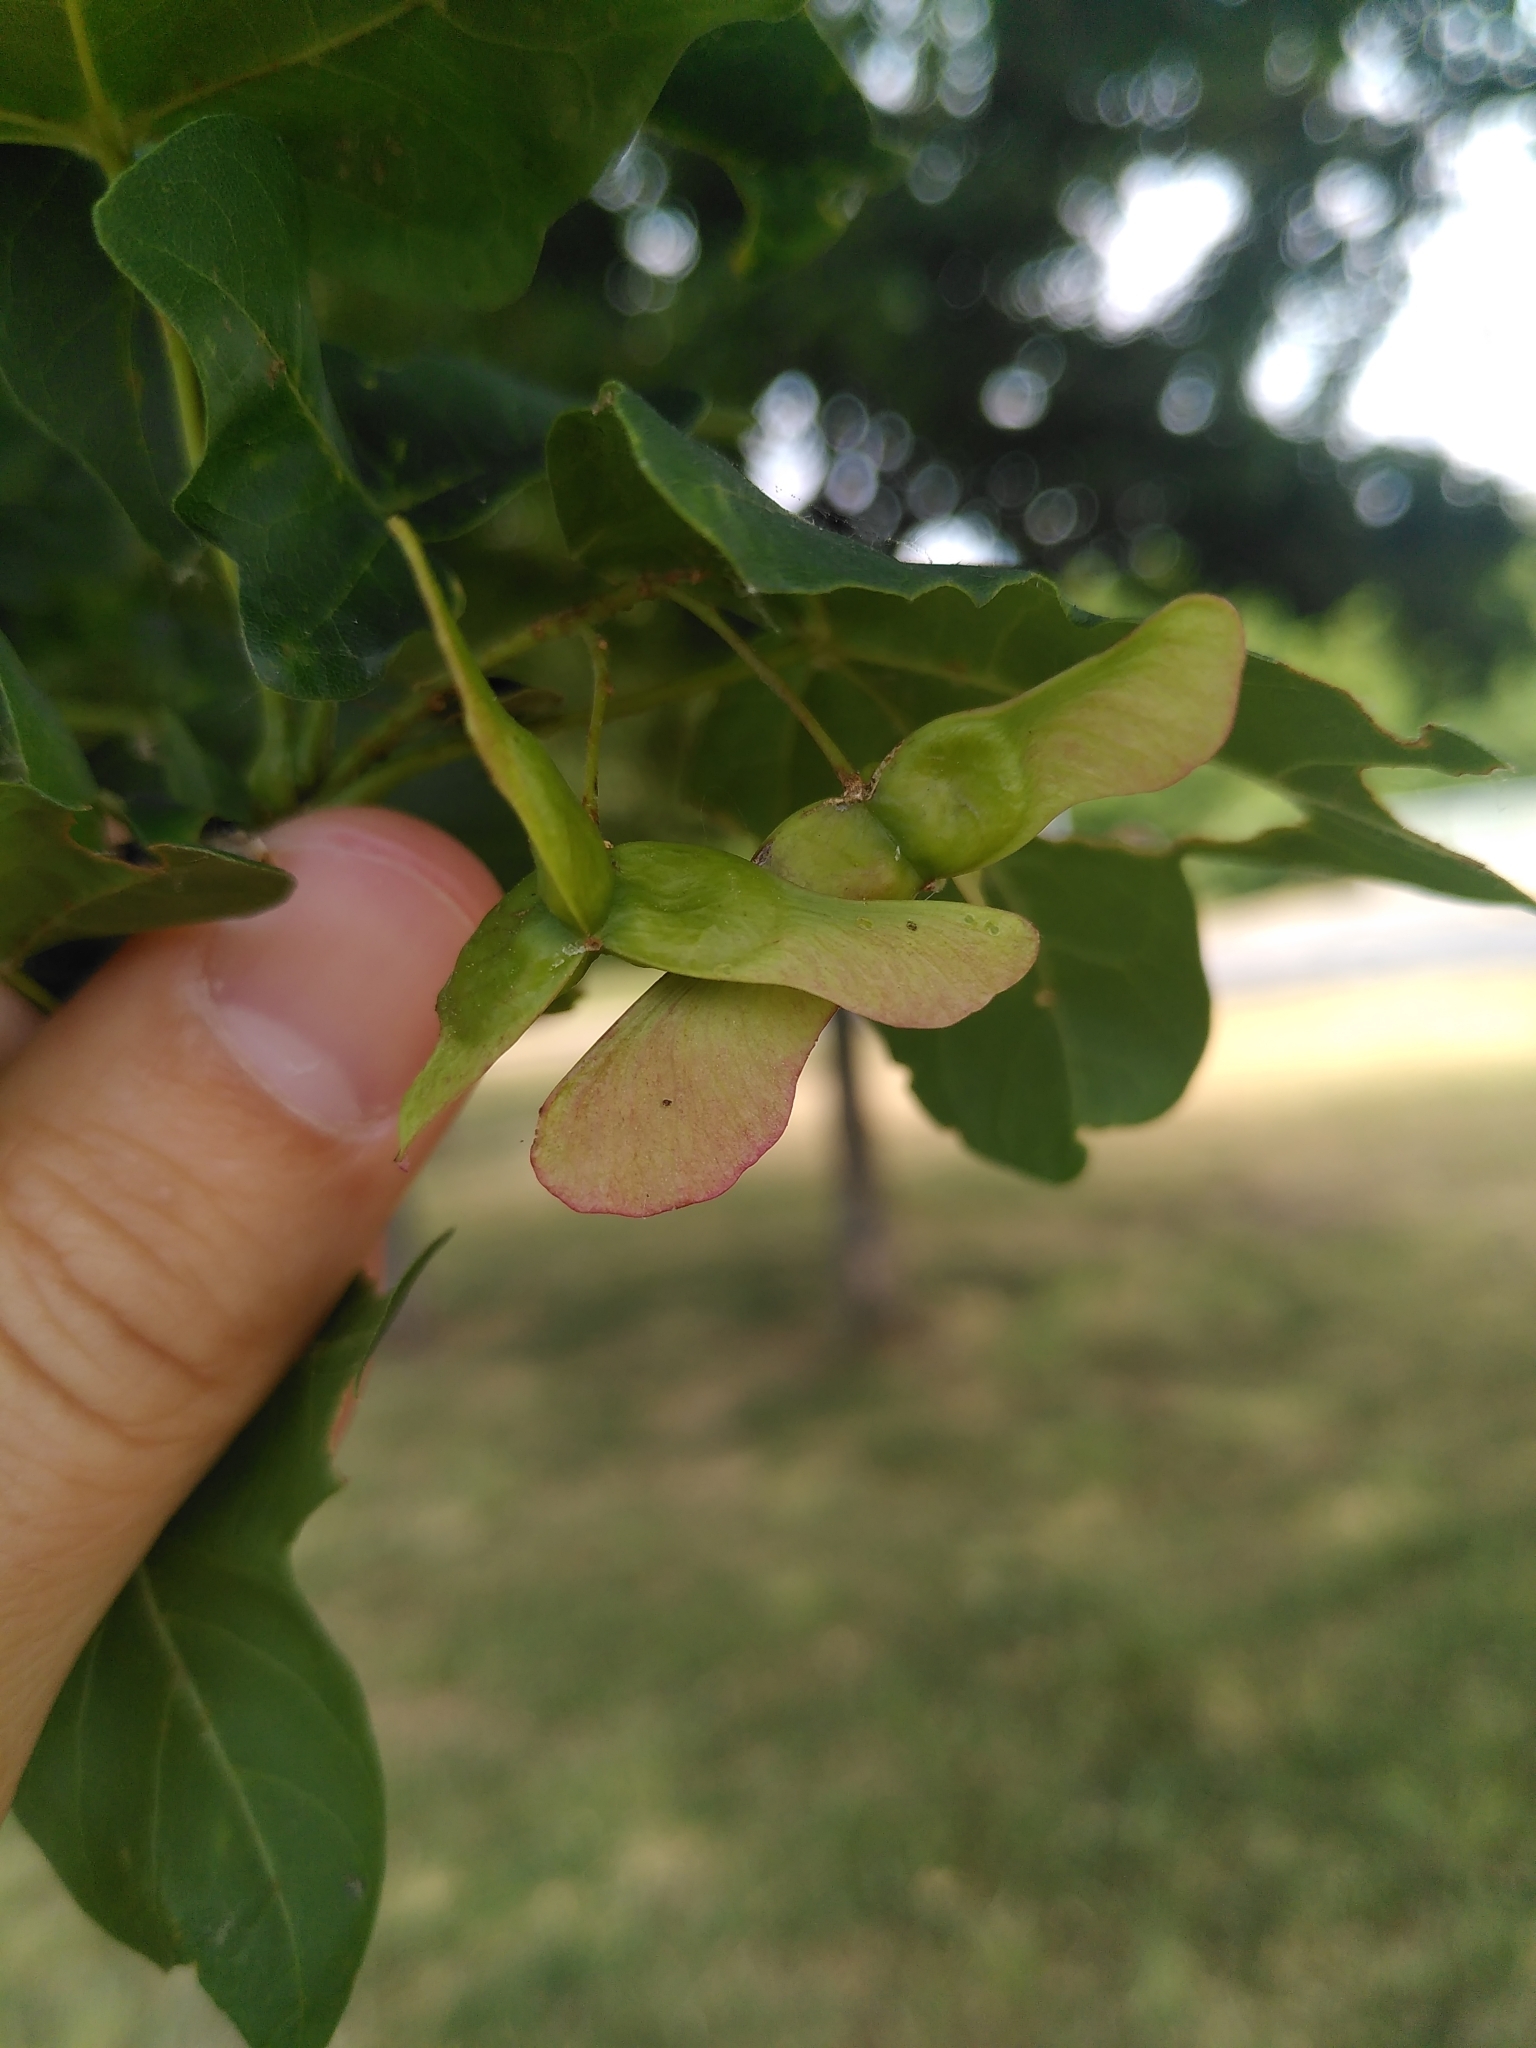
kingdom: Plantae
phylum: Tracheophyta
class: Magnoliopsida
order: Sapindales
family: Sapindaceae
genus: Acer
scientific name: Acer campestre
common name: Field maple
